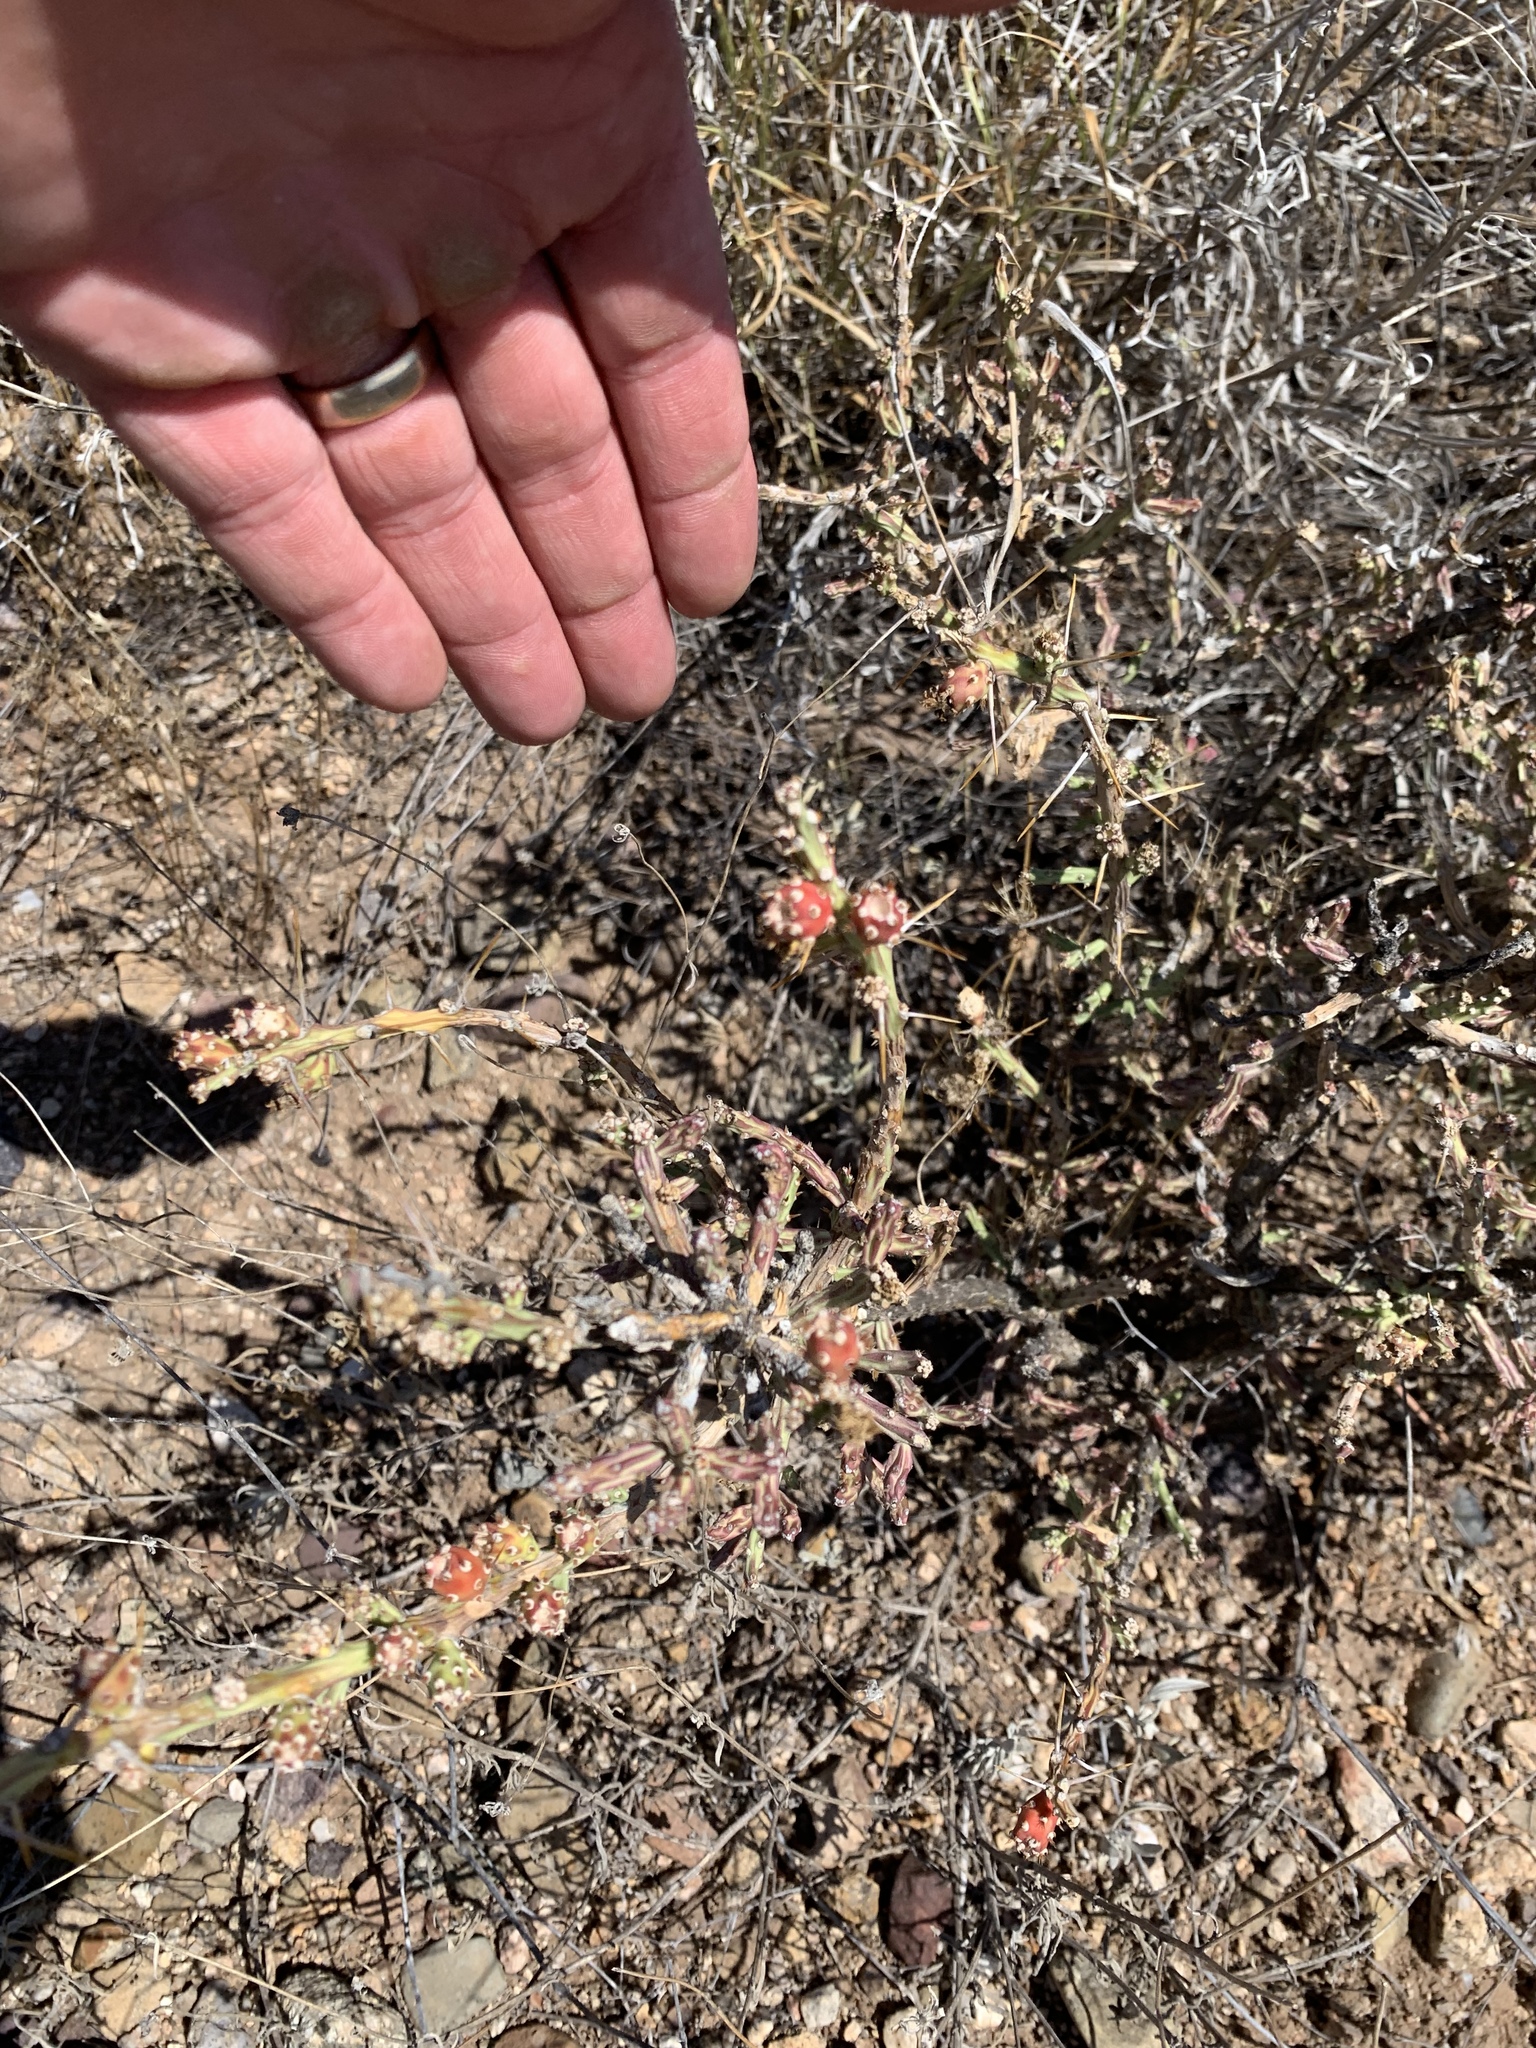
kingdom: Plantae
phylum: Tracheophyta
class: Magnoliopsida
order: Caryophyllales
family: Cactaceae
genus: Cylindropuntia
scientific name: Cylindropuntia leptocaulis
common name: Christmas cactus
